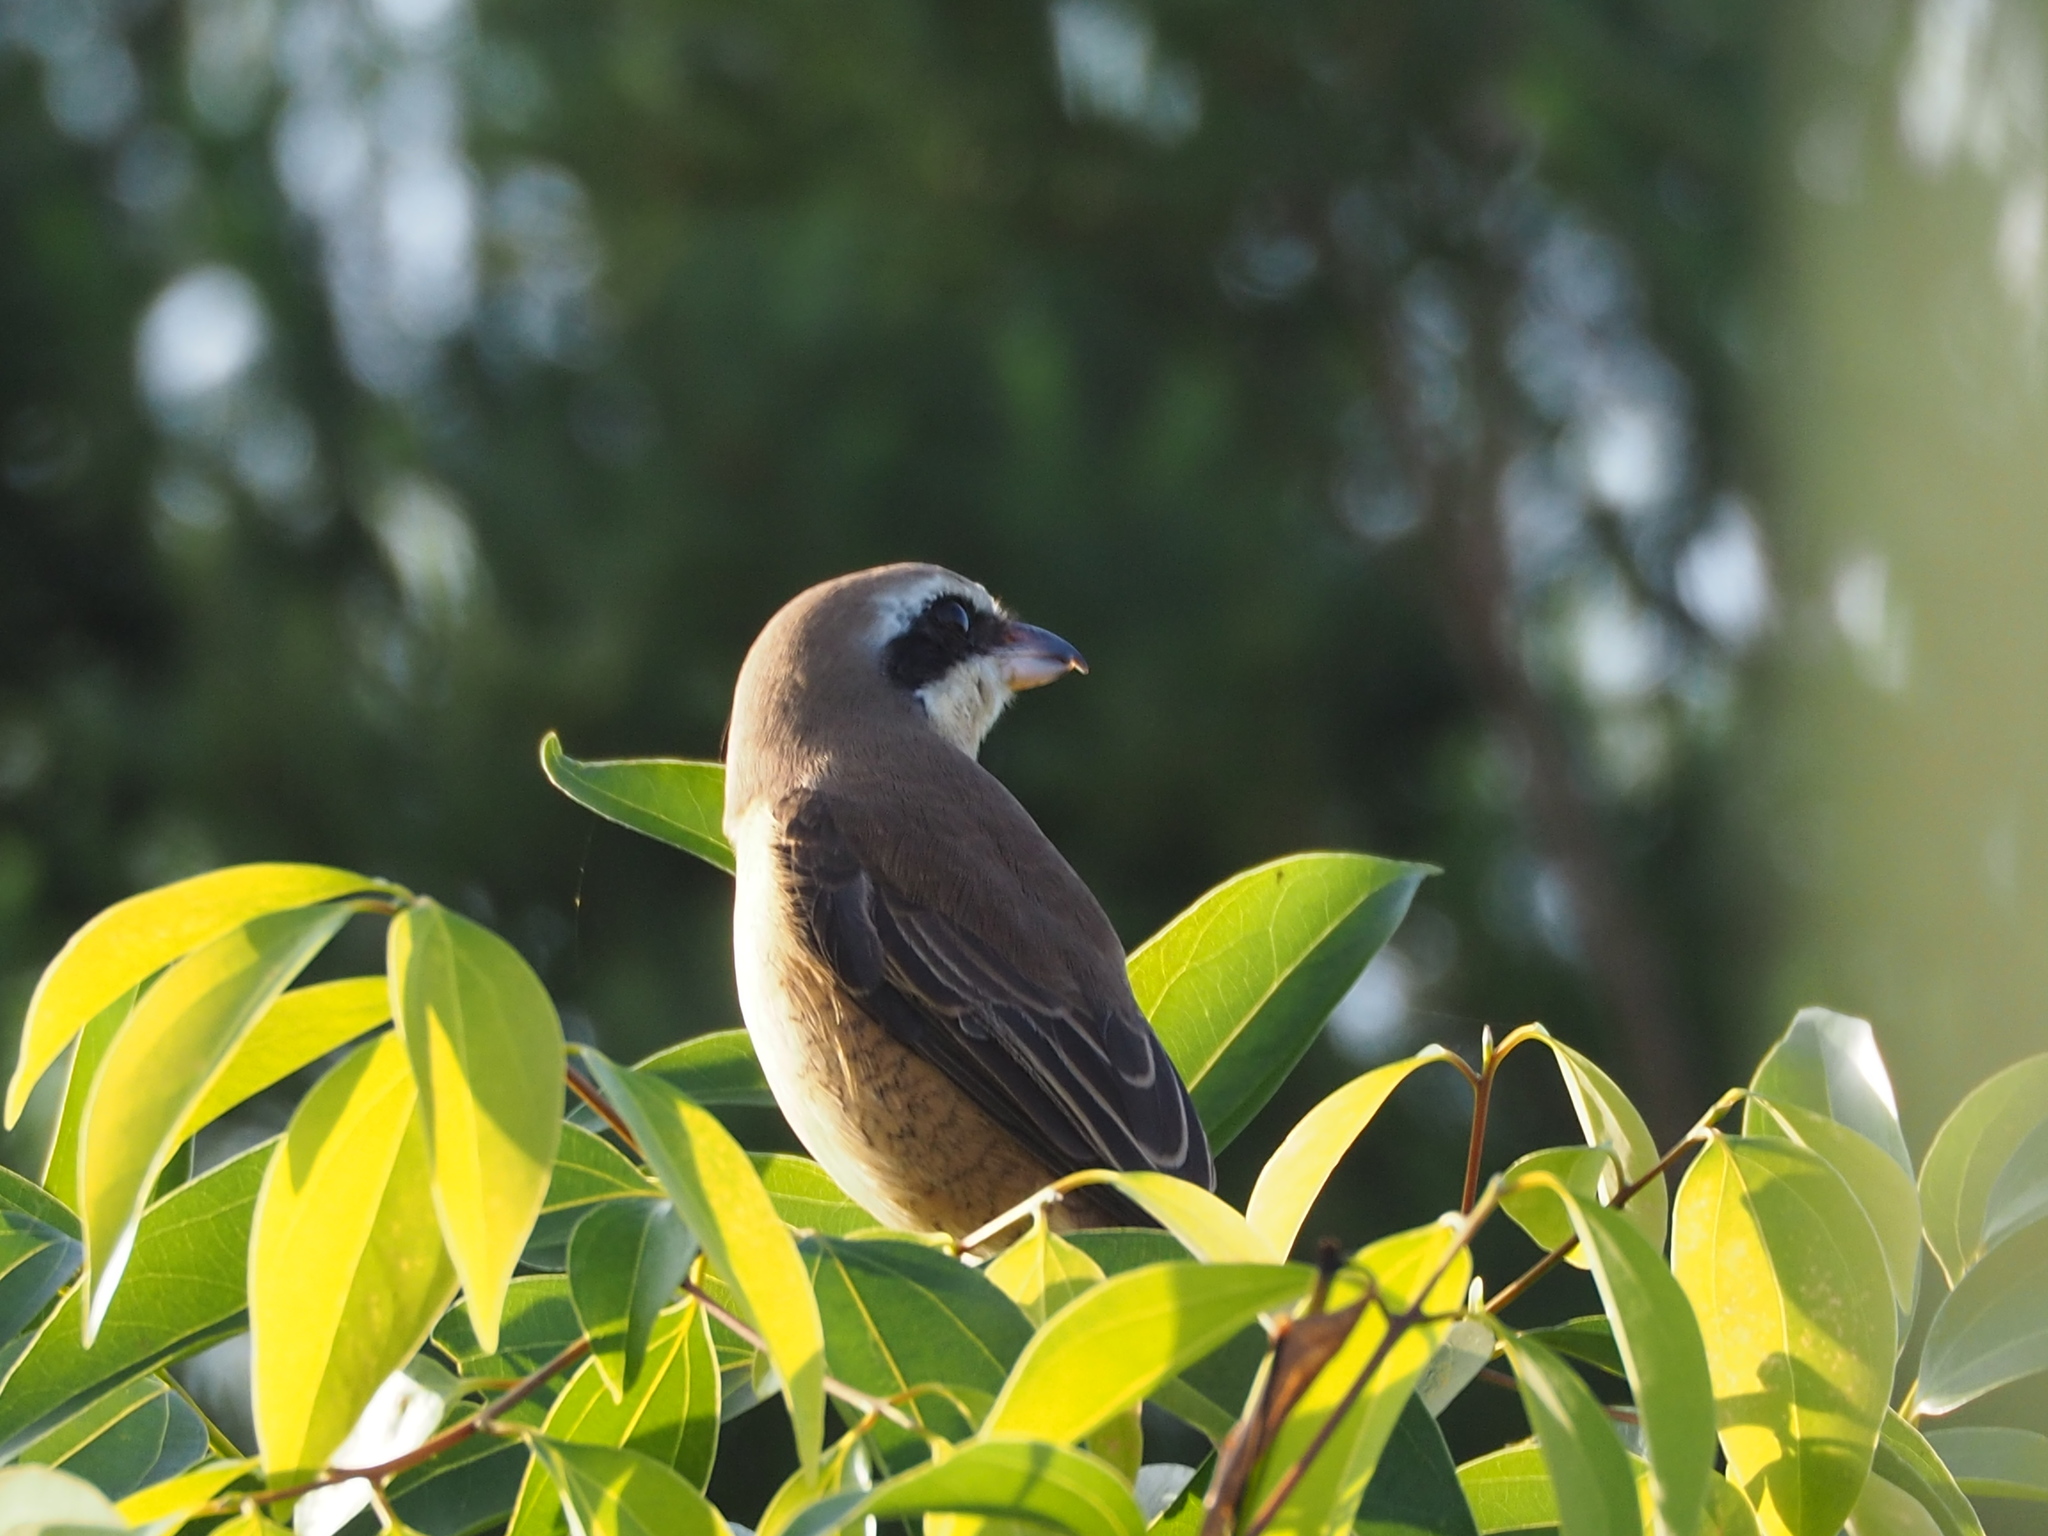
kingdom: Animalia
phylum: Chordata
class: Aves
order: Passeriformes
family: Laniidae
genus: Lanius
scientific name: Lanius cristatus
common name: Brown shrike
